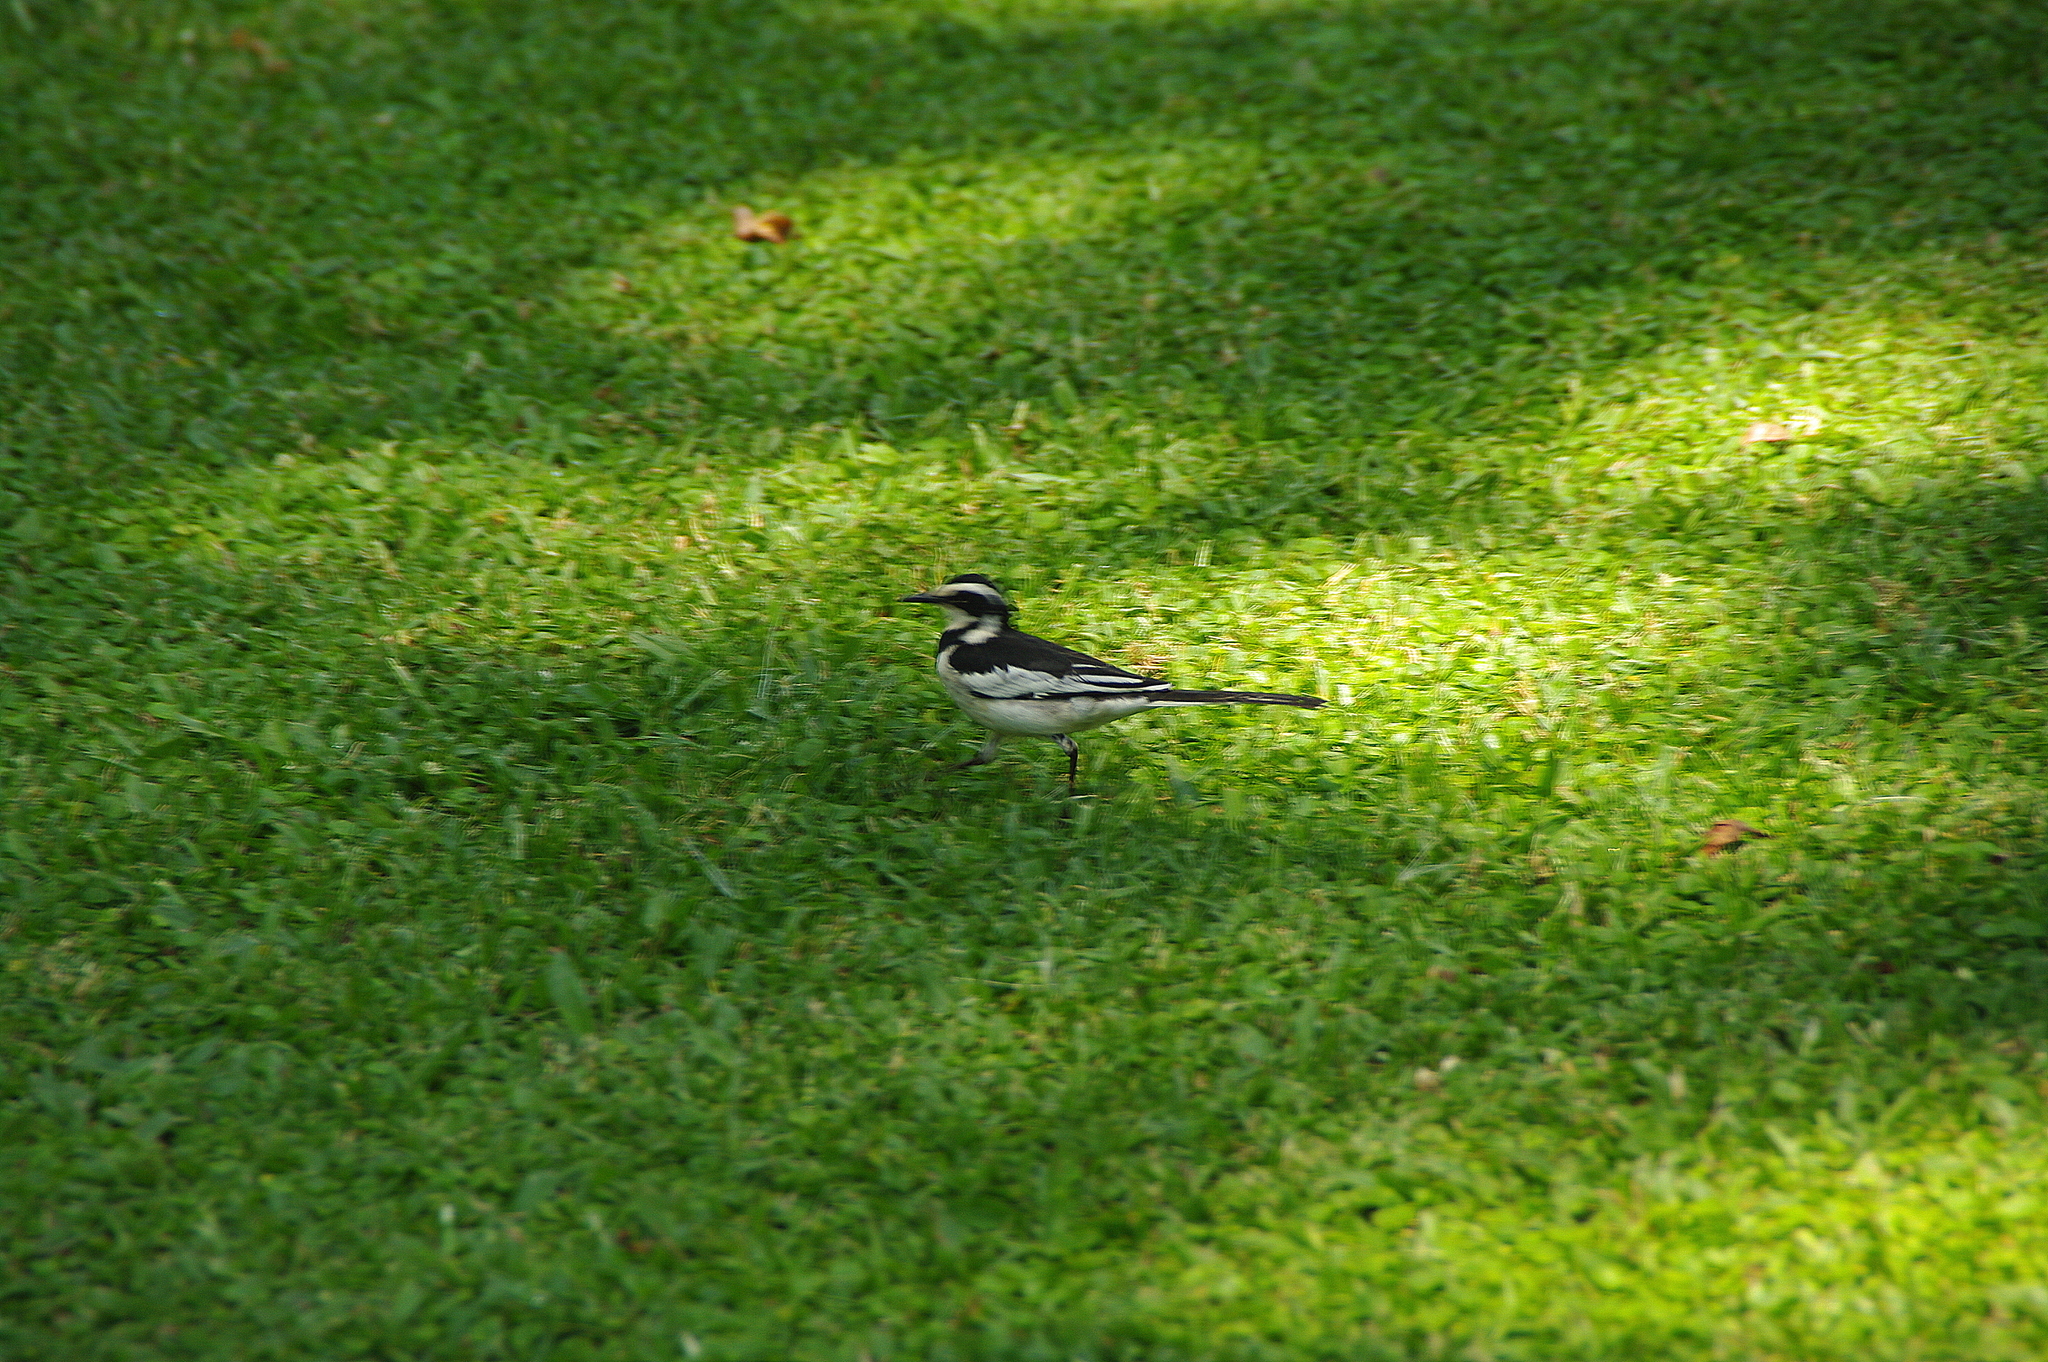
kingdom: Animalia
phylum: Chordata
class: Aves
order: Passeriformes
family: Motacillidae
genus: Motacilla
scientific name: Motacilla aguimp
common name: African pied wagtail
